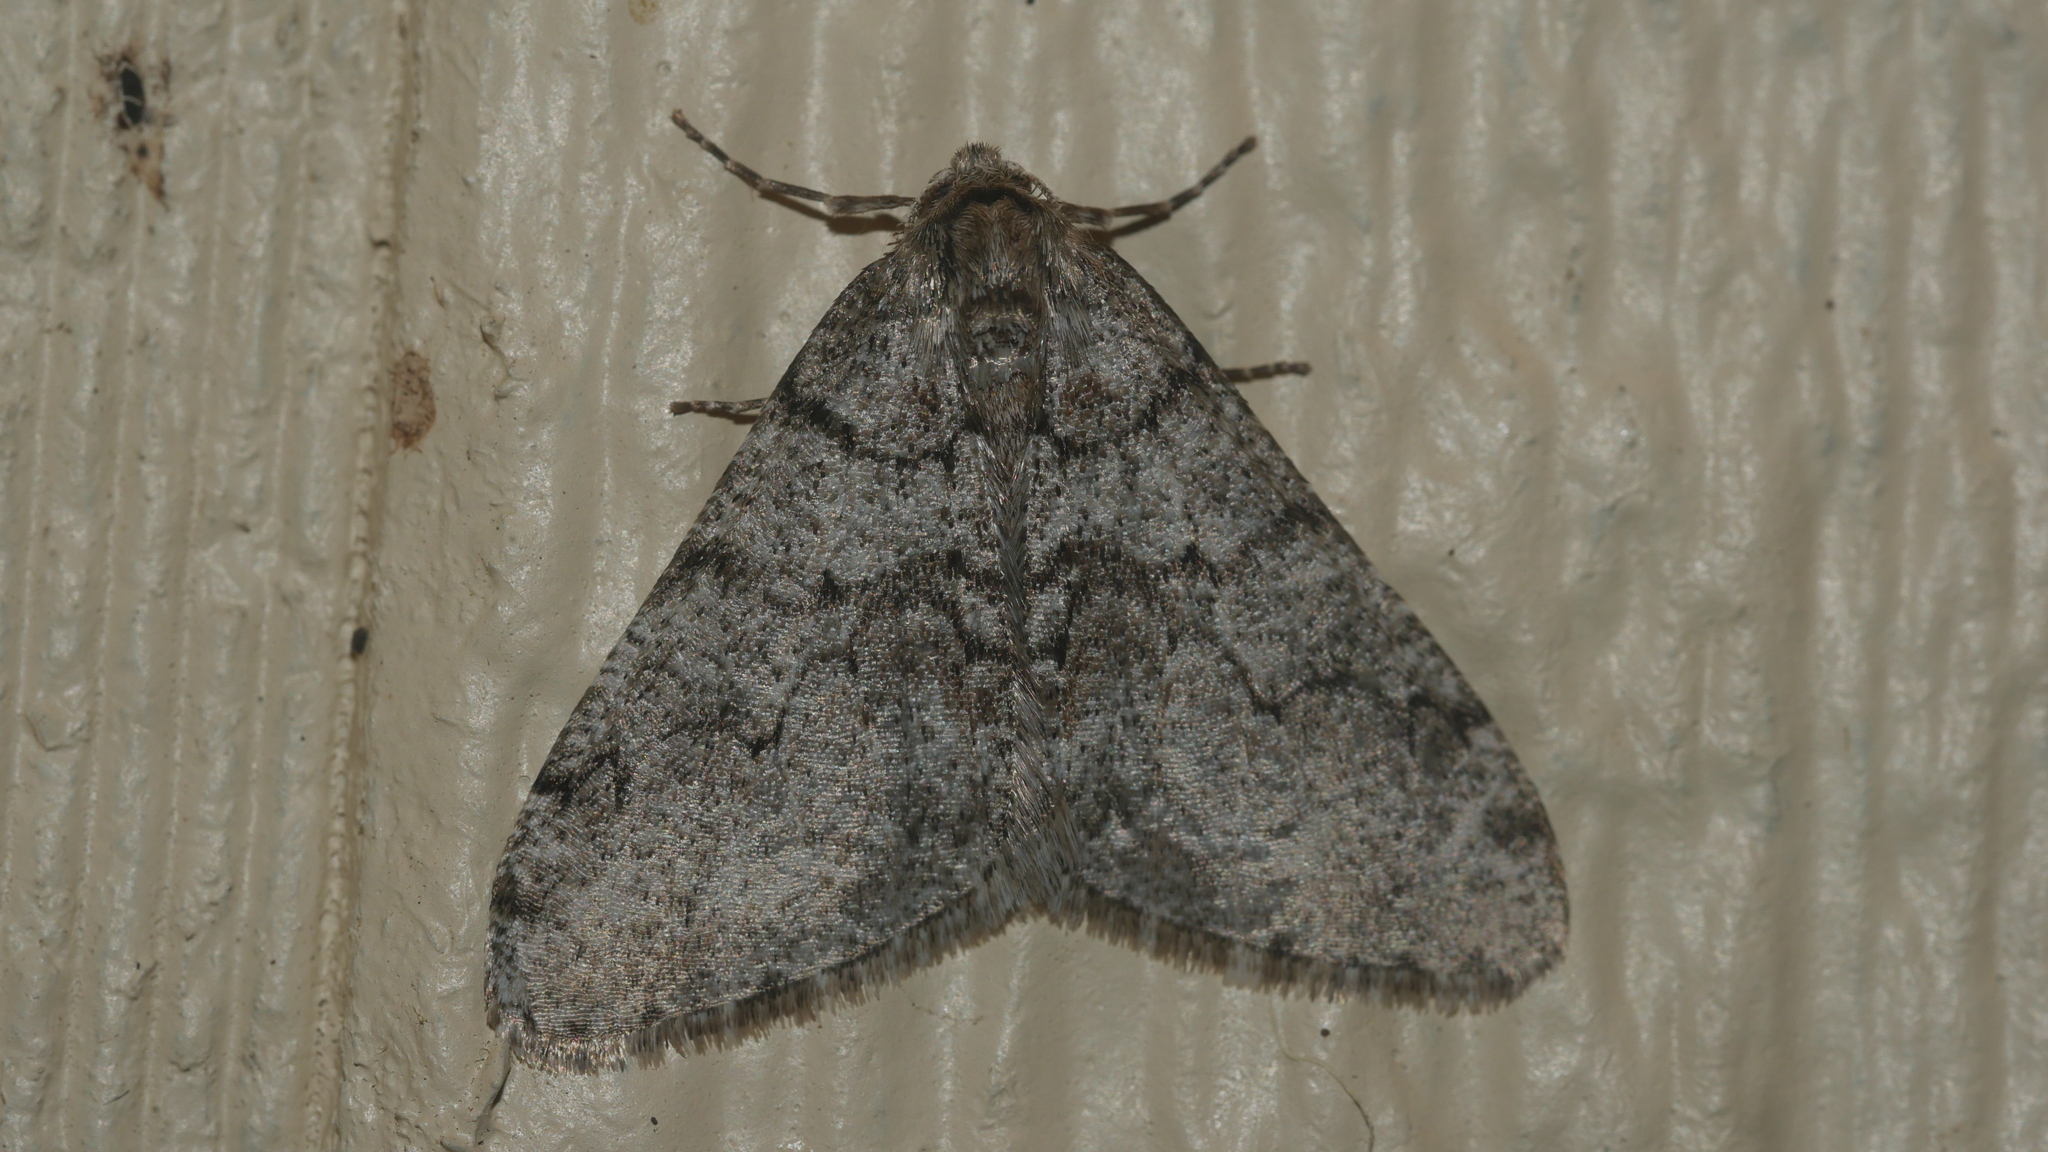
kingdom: Animalia
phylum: Arthropoda
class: Insecta
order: Lepidoptera
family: Geometridae
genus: Phigalia
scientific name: Phigalia denticulata
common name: Toothed phigalia
